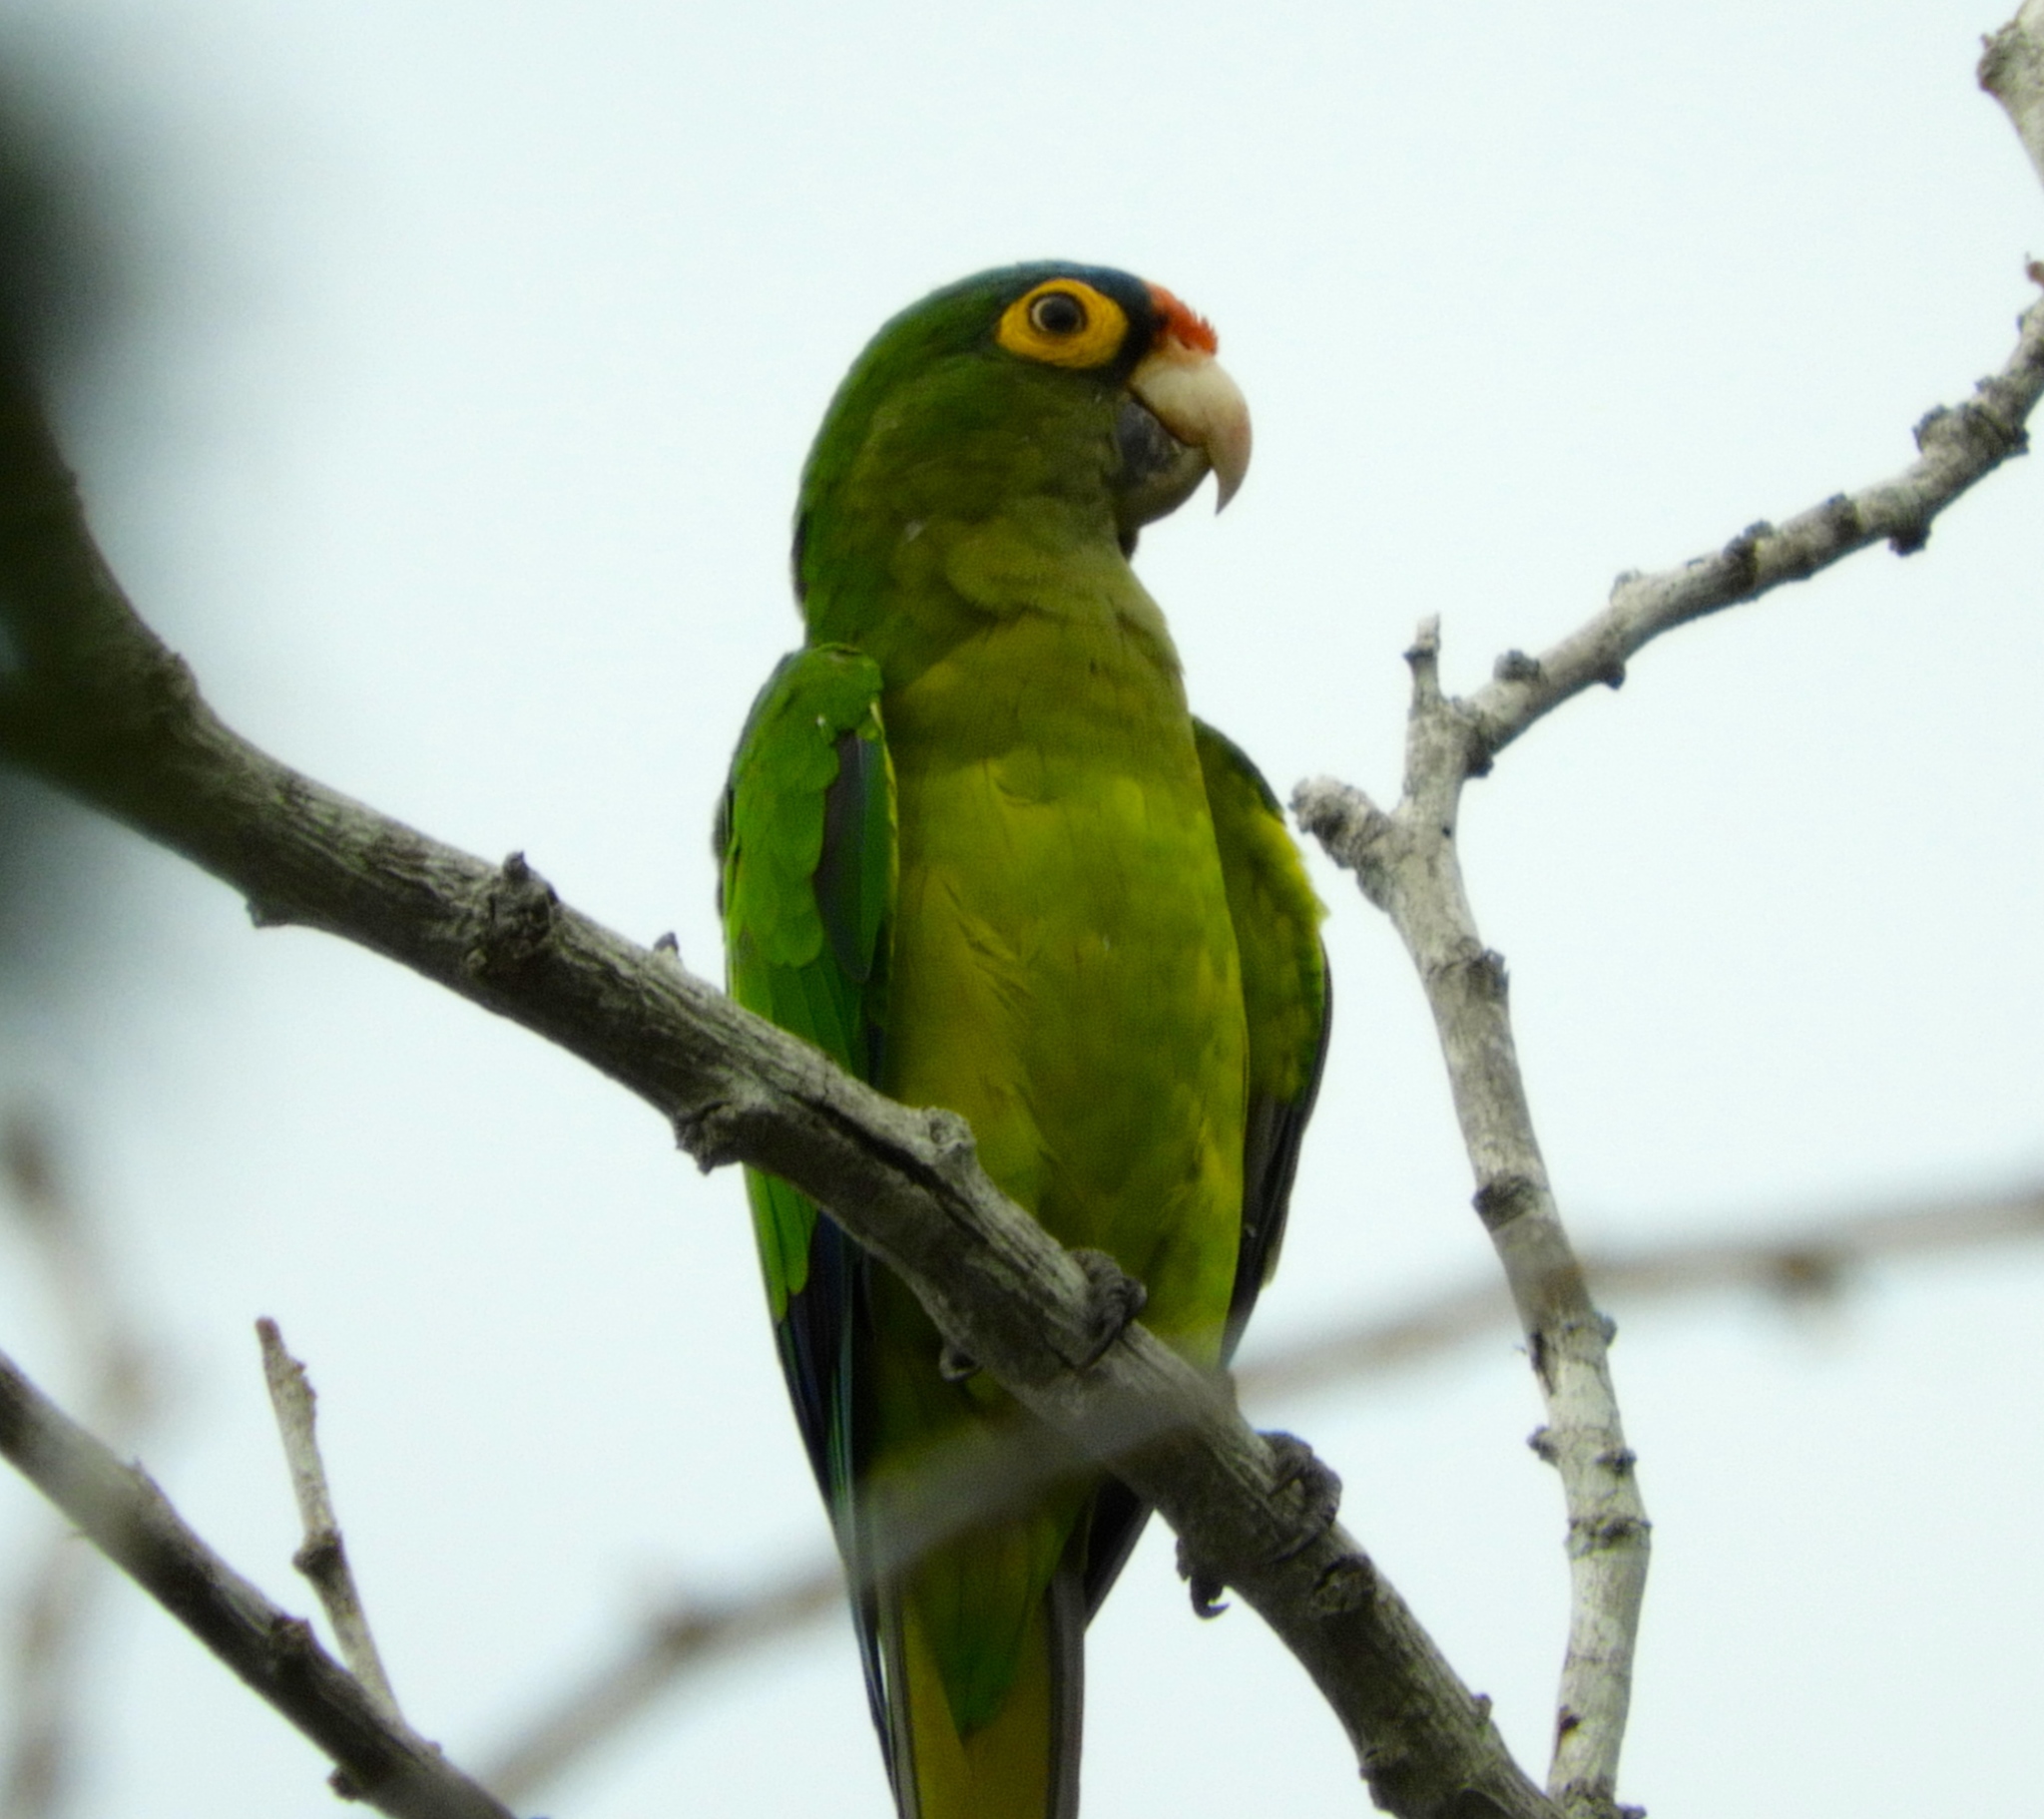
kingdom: Animalia
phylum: Chordata
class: Aves
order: Psittaciformes
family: Psittacidae
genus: Aratinga
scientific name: Aratinga canicularis
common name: Orange-fronted parakeet
